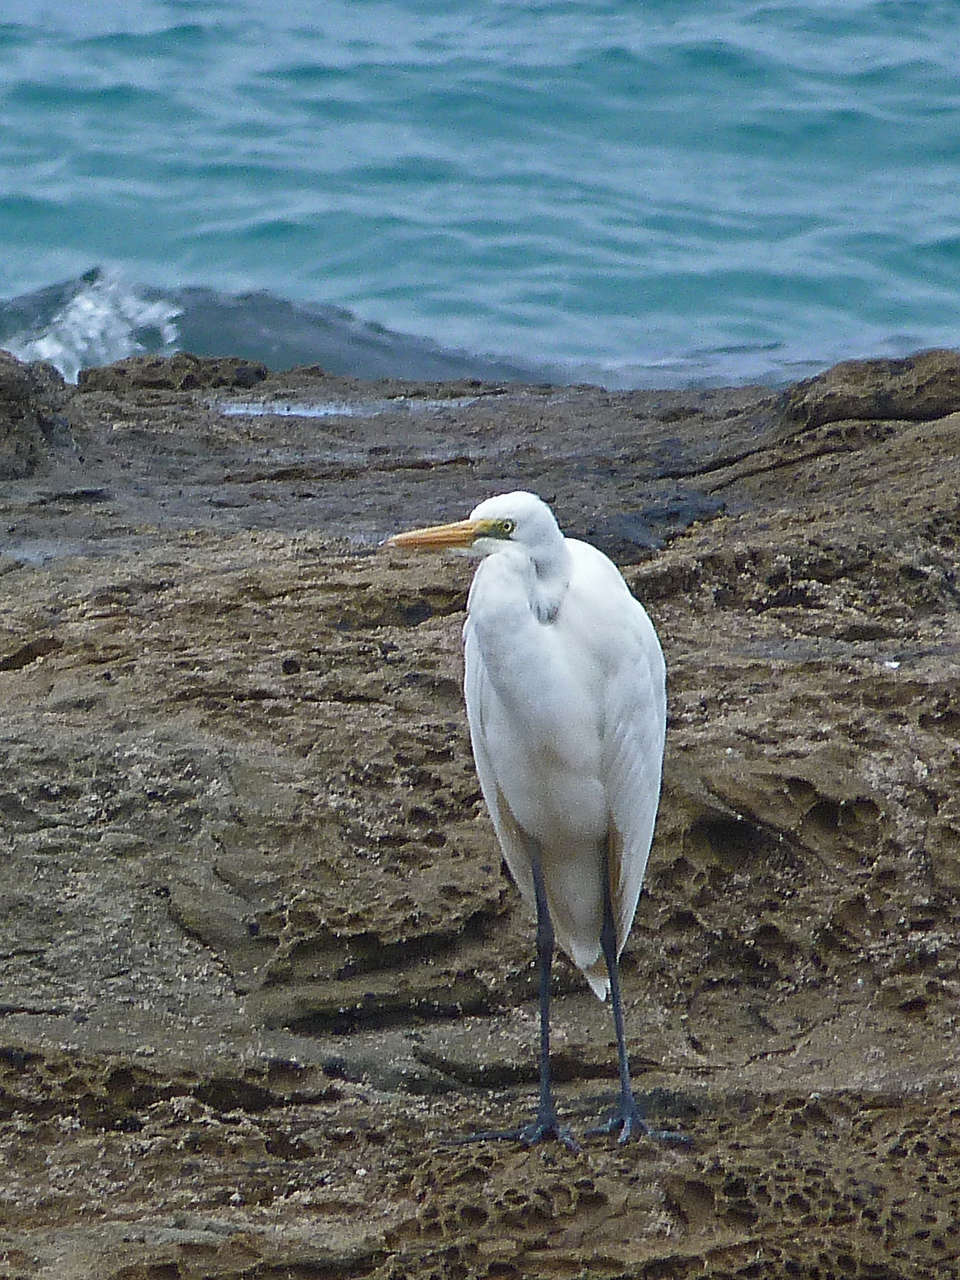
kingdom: Animalia
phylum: Chordata
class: Aves
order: Pelecaniformes
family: Ardeidae
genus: Ardea
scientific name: Ardea modesta
